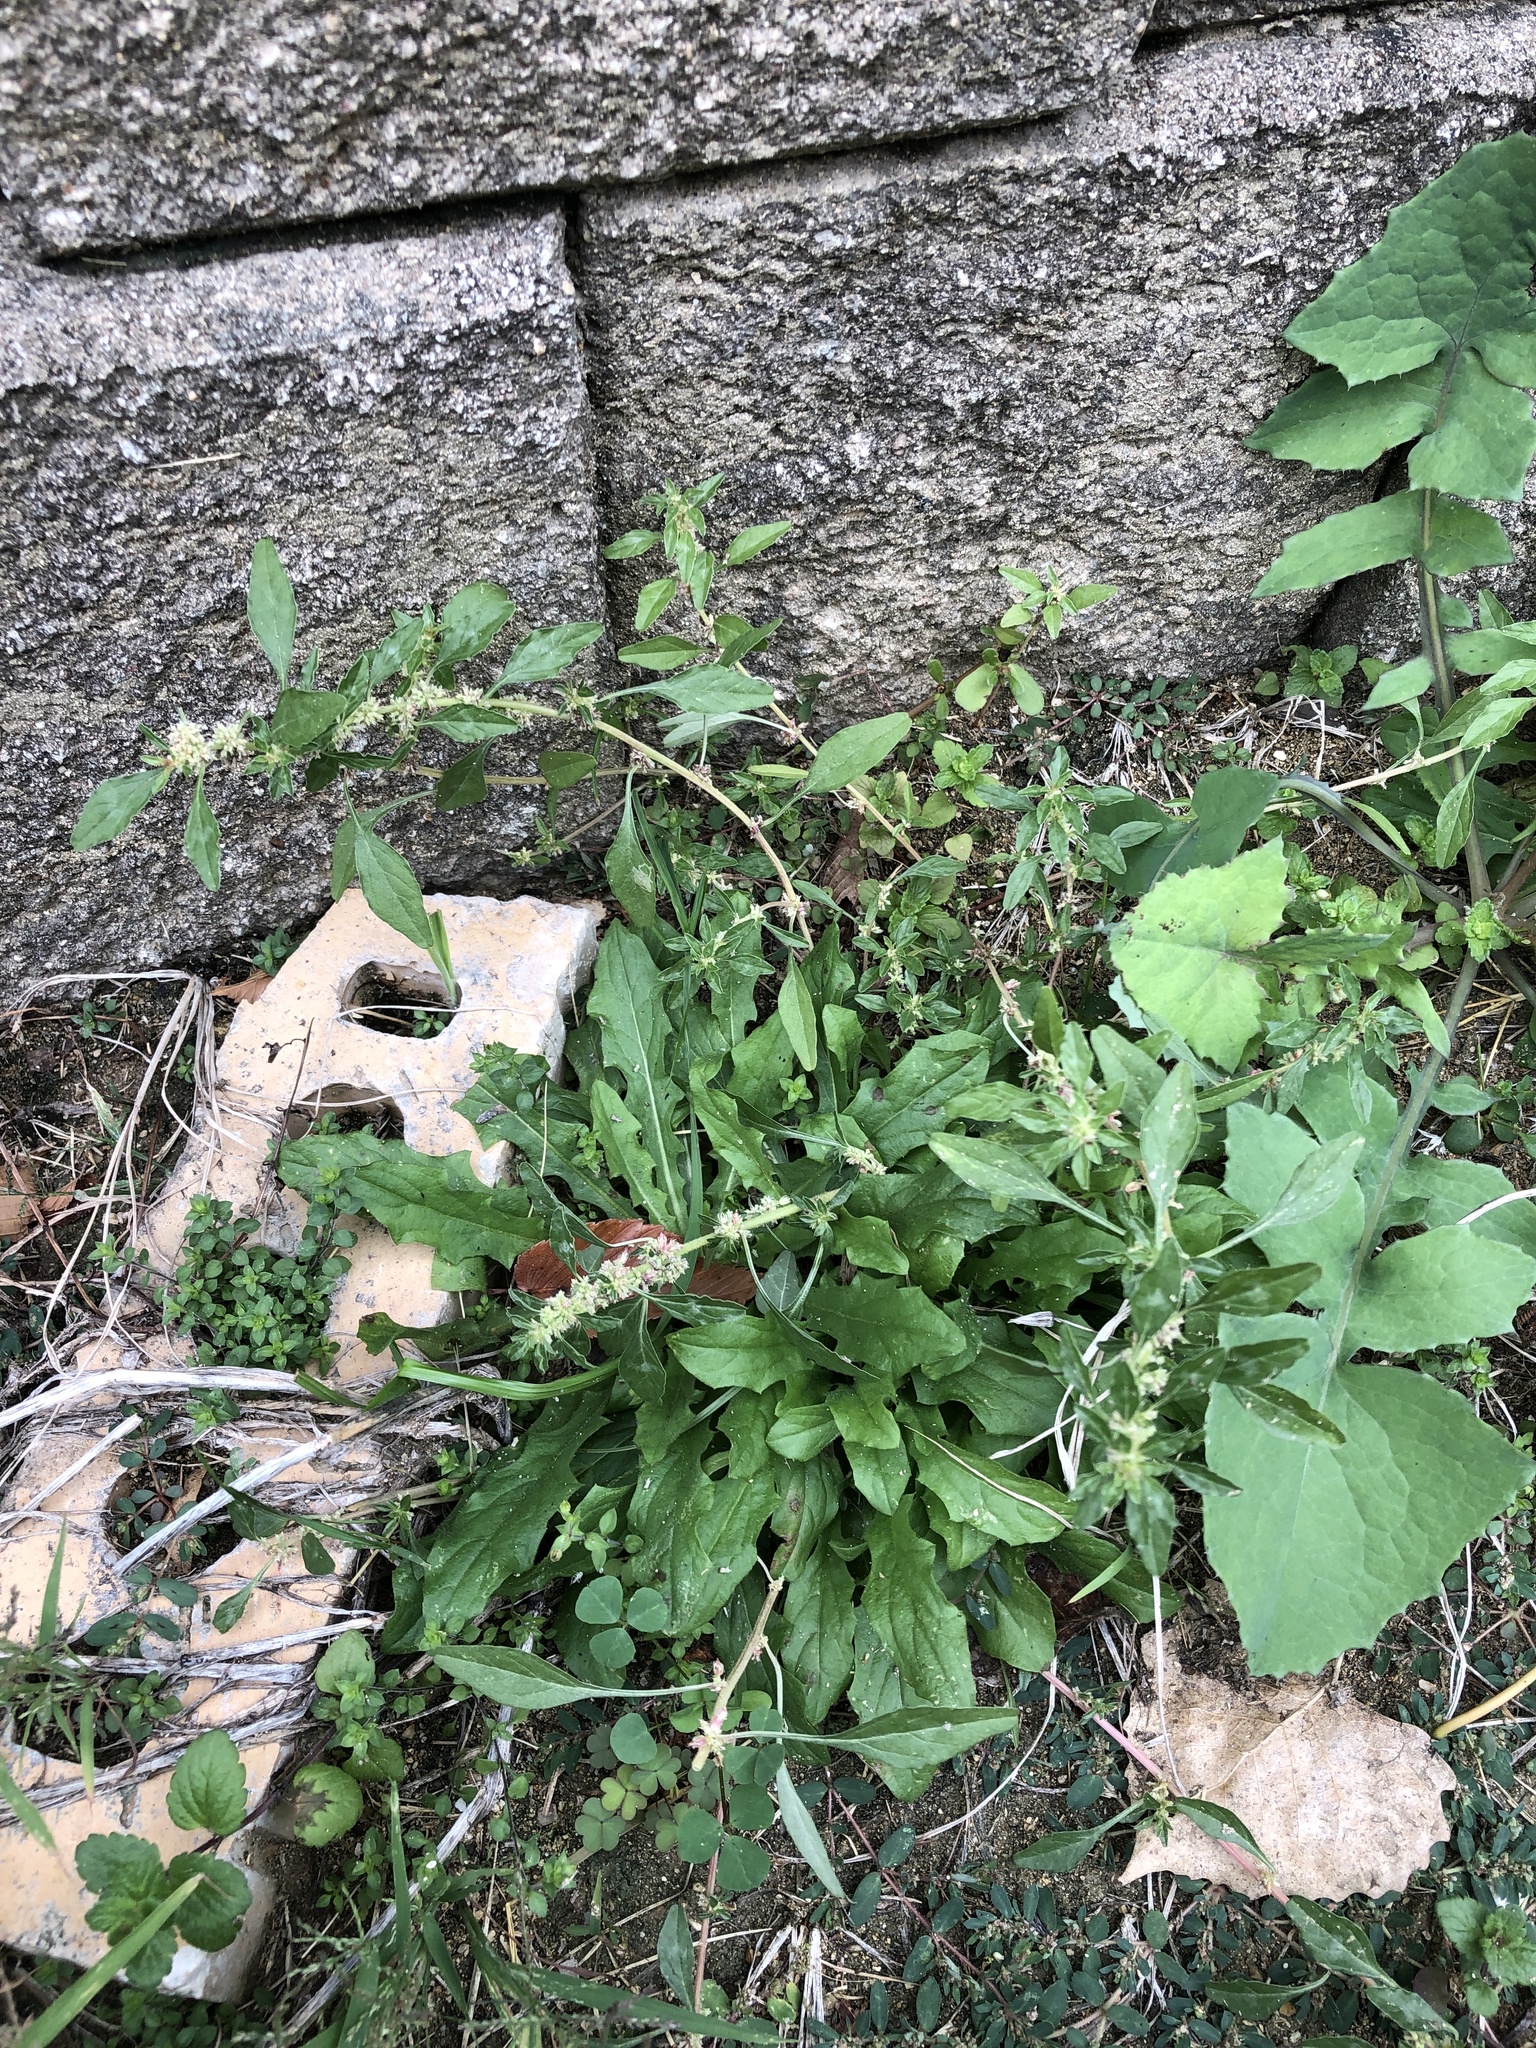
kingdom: Plantae
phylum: Tracheophyta
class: Magnoliopsida
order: Caryophyllales
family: Amaranthaceae
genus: Amaranthus
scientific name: Amaranthus blitoides
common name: Prostrate pigweed
